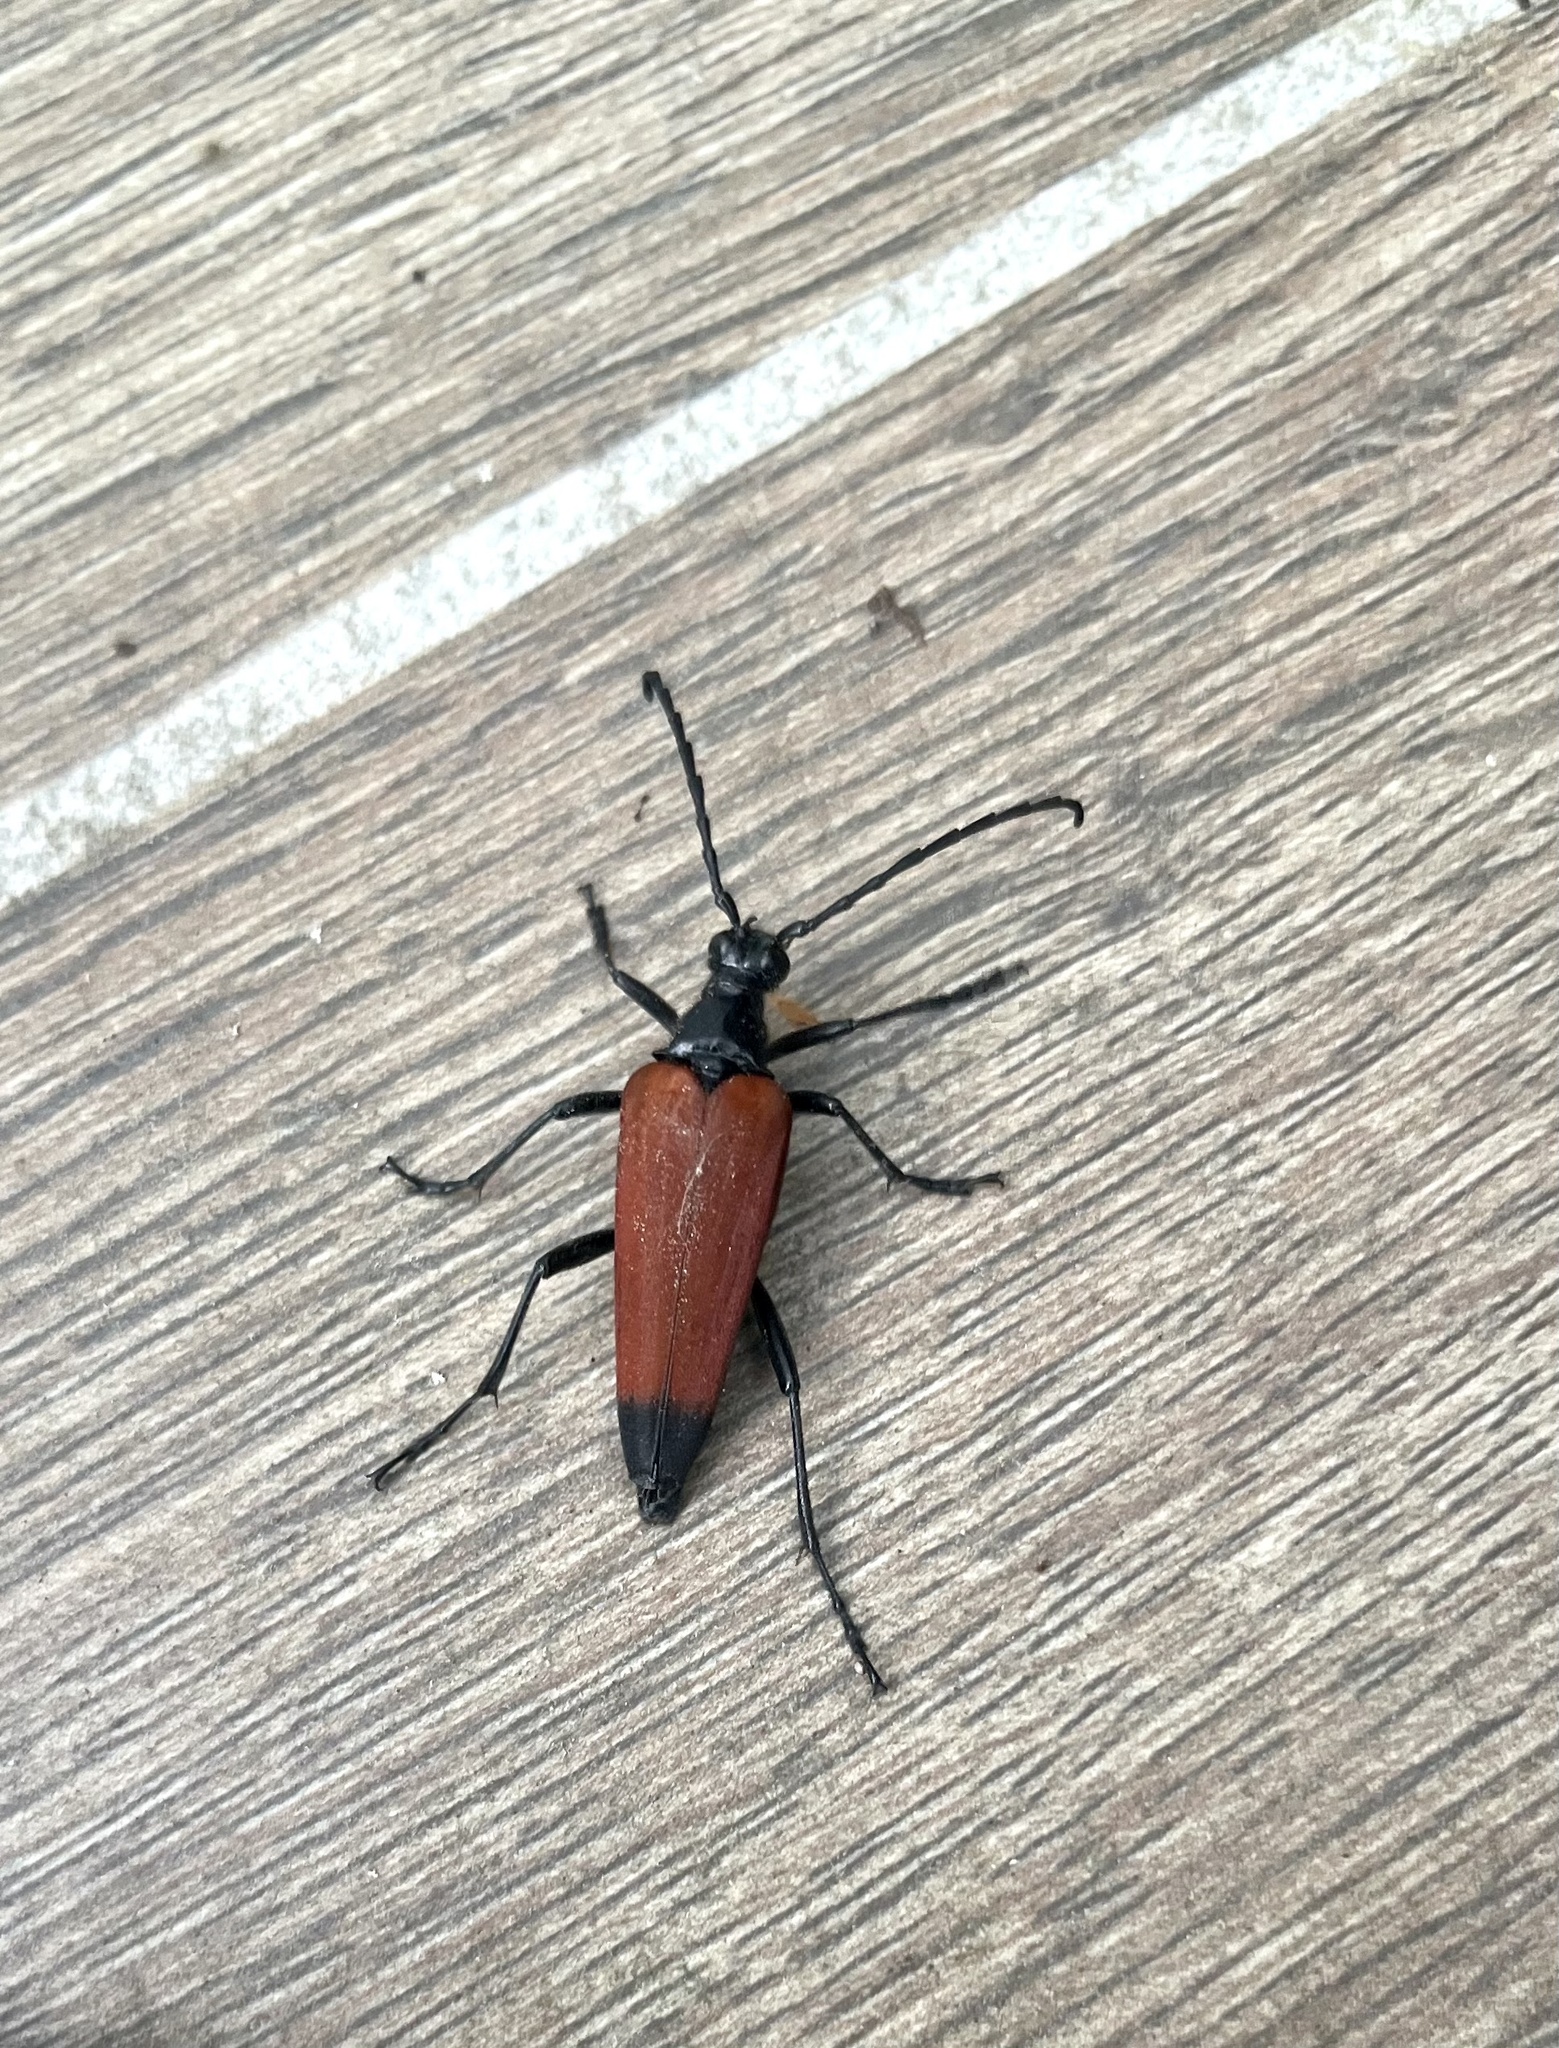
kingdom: Animalia
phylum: Arthropoda
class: Insecta
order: Coleoptera
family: Cerambycidae
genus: Stenelytrana
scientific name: Stenelytrana emarginata
